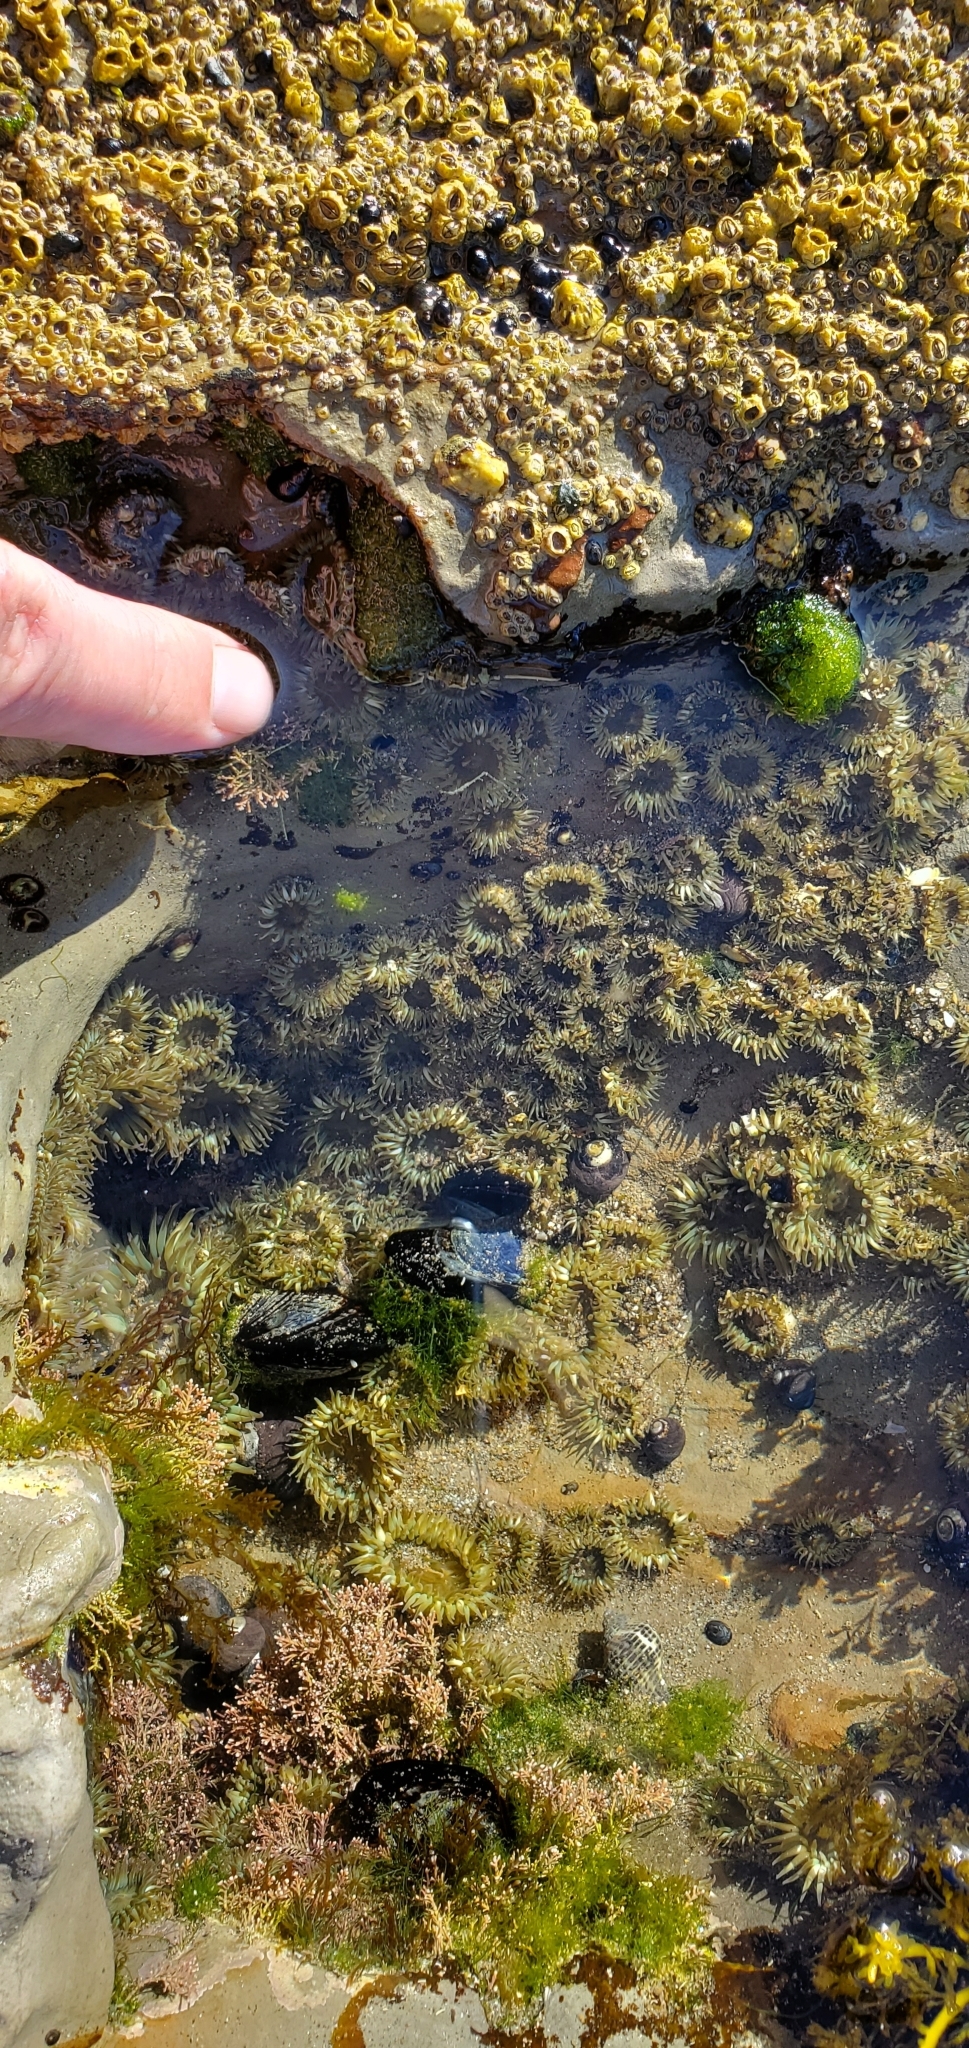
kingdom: Animalia
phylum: Cnidaria
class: Anthozoa
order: Actiniaria
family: Actiniidae
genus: Anthopleura
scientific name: Anthopleura elegantissima
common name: Clonal anemone
